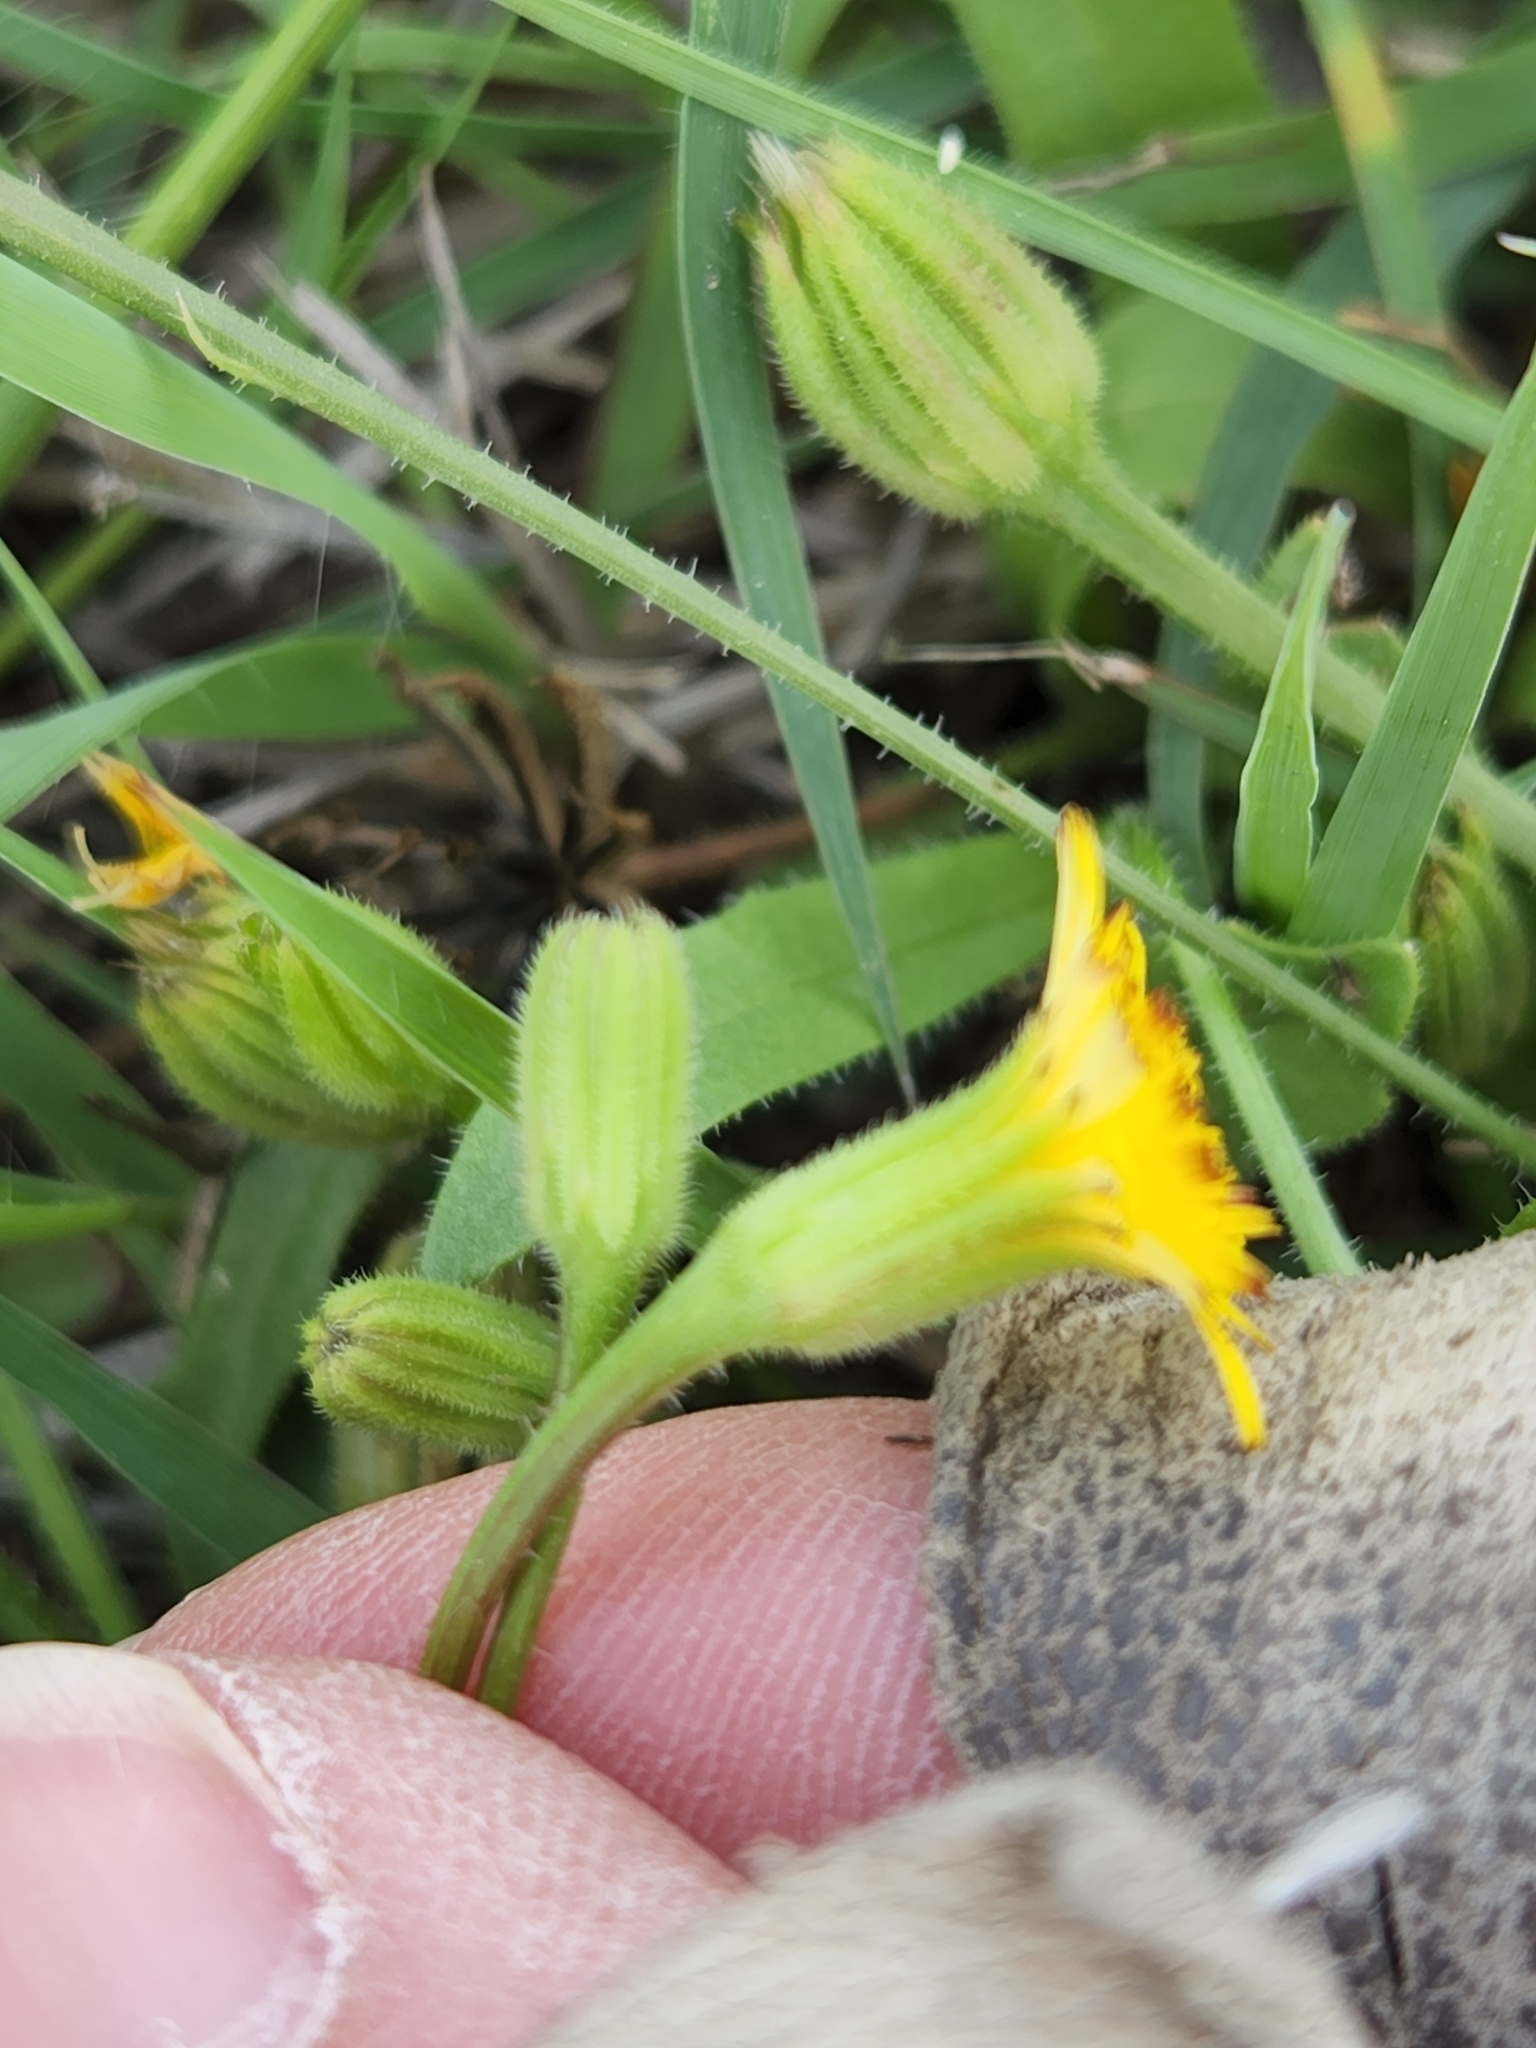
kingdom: Plantae
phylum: Tracheophyta
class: Magnoliopsida
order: Asterales
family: Asteraceae
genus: Hedypnois
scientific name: Hedypnois rhagadioloides
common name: Cretan weed
